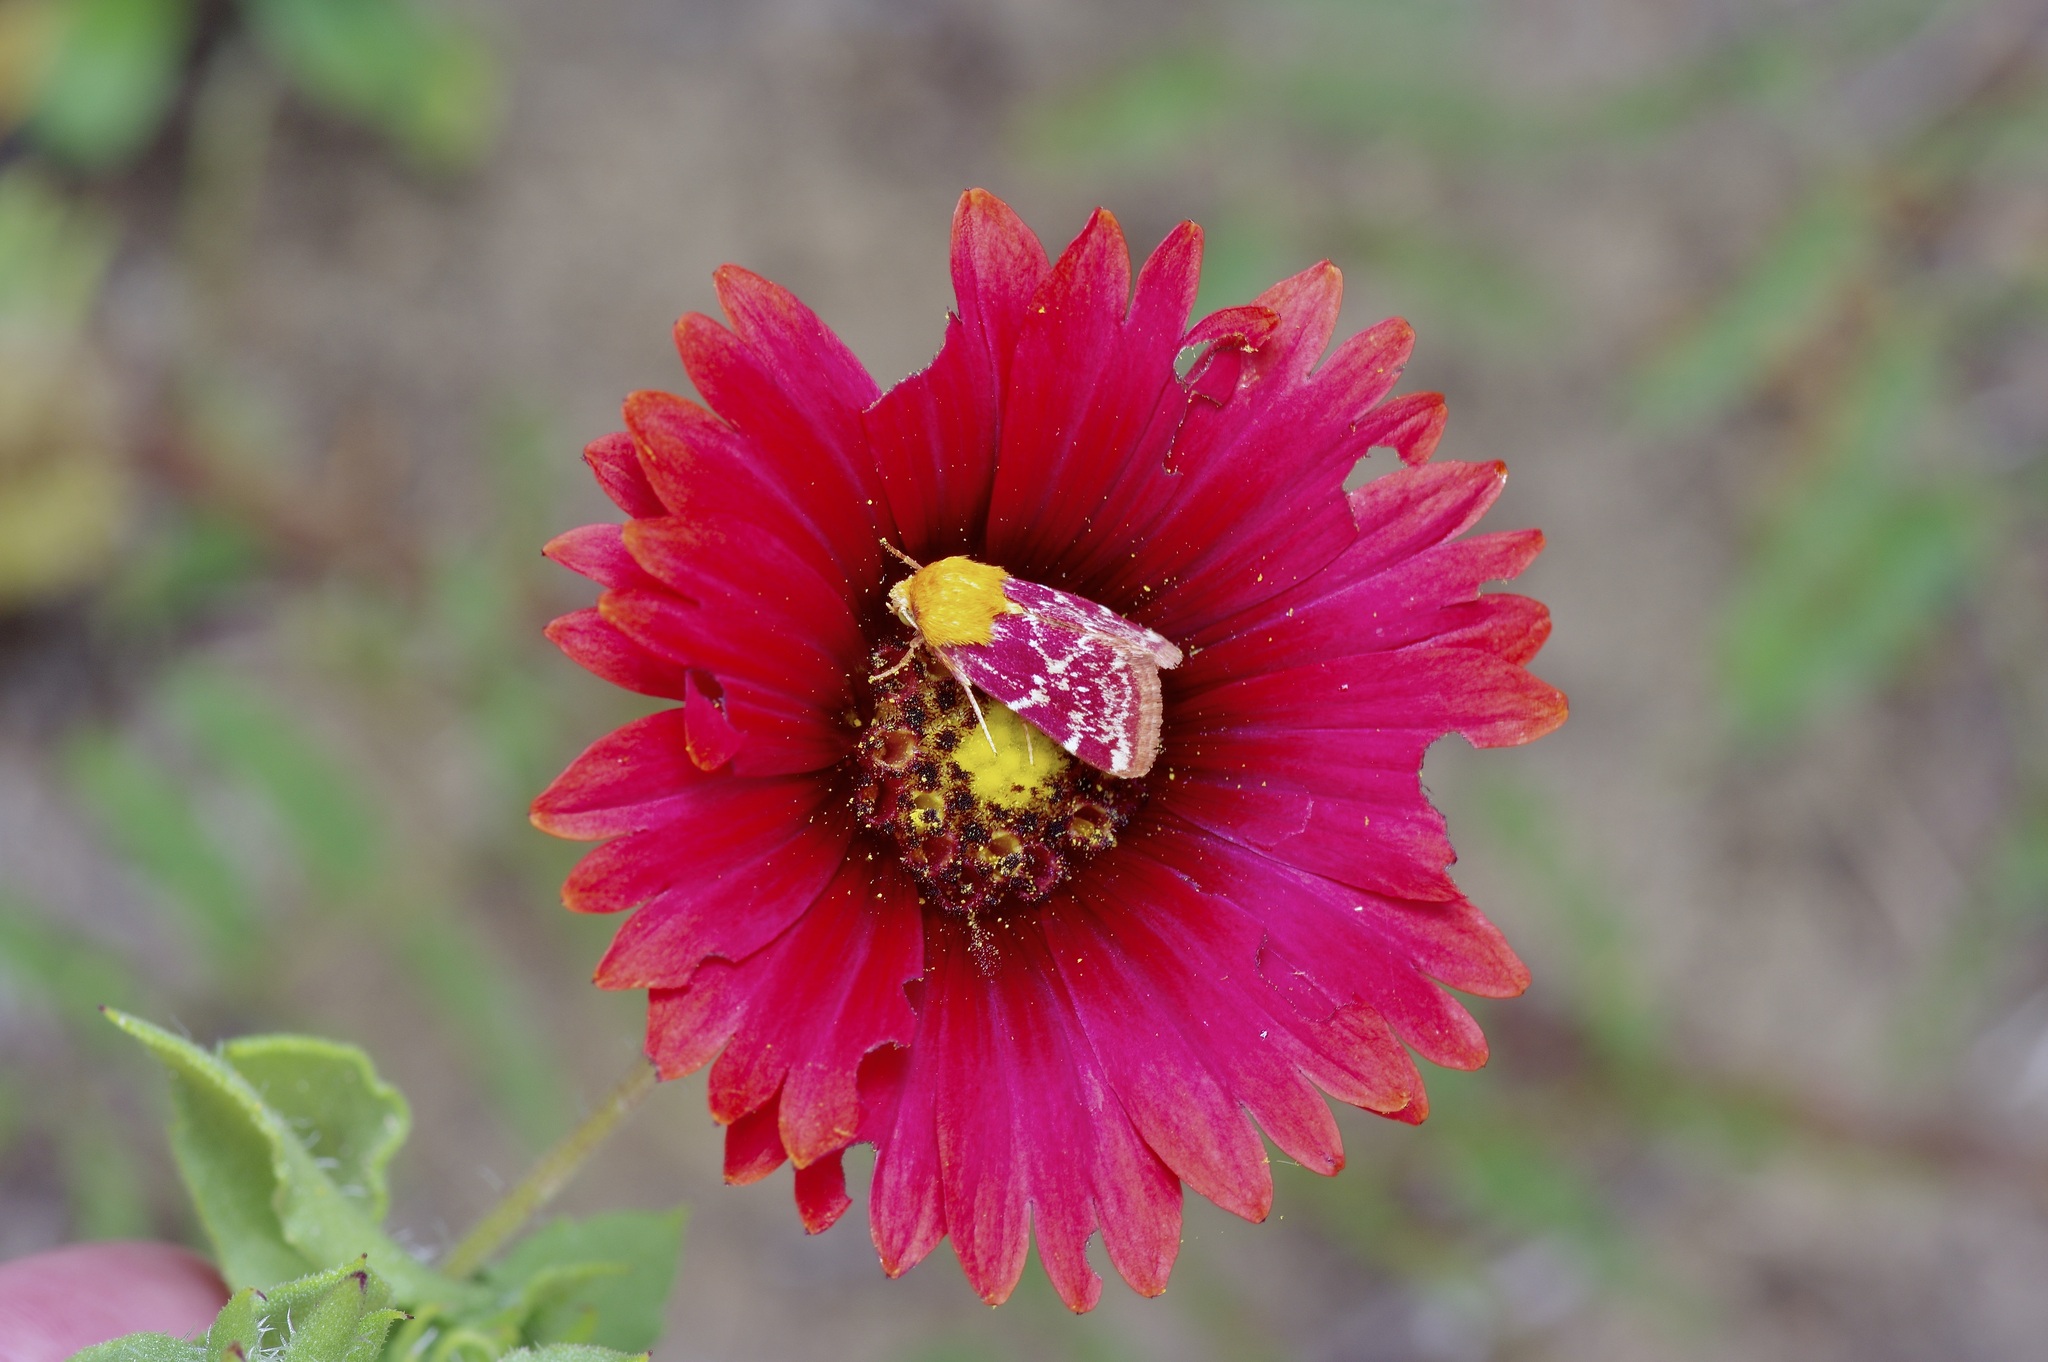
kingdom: Animalia
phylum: Arthropoda
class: Insecta
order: Lepidoptera
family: Noctuidae
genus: Schinia
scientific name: Schinia volupia
